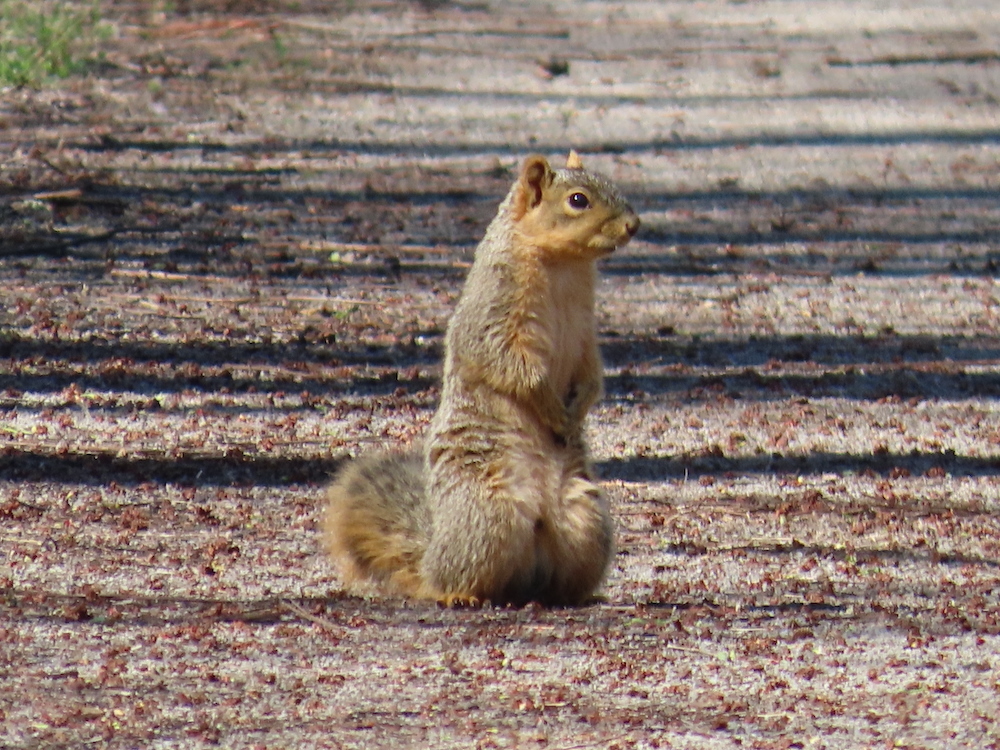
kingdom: Animalia
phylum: Chordata
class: Mammalia
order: Rodentia
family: Sciuridae
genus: Sciurus
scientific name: Sciurus niger
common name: Fox squirrel
